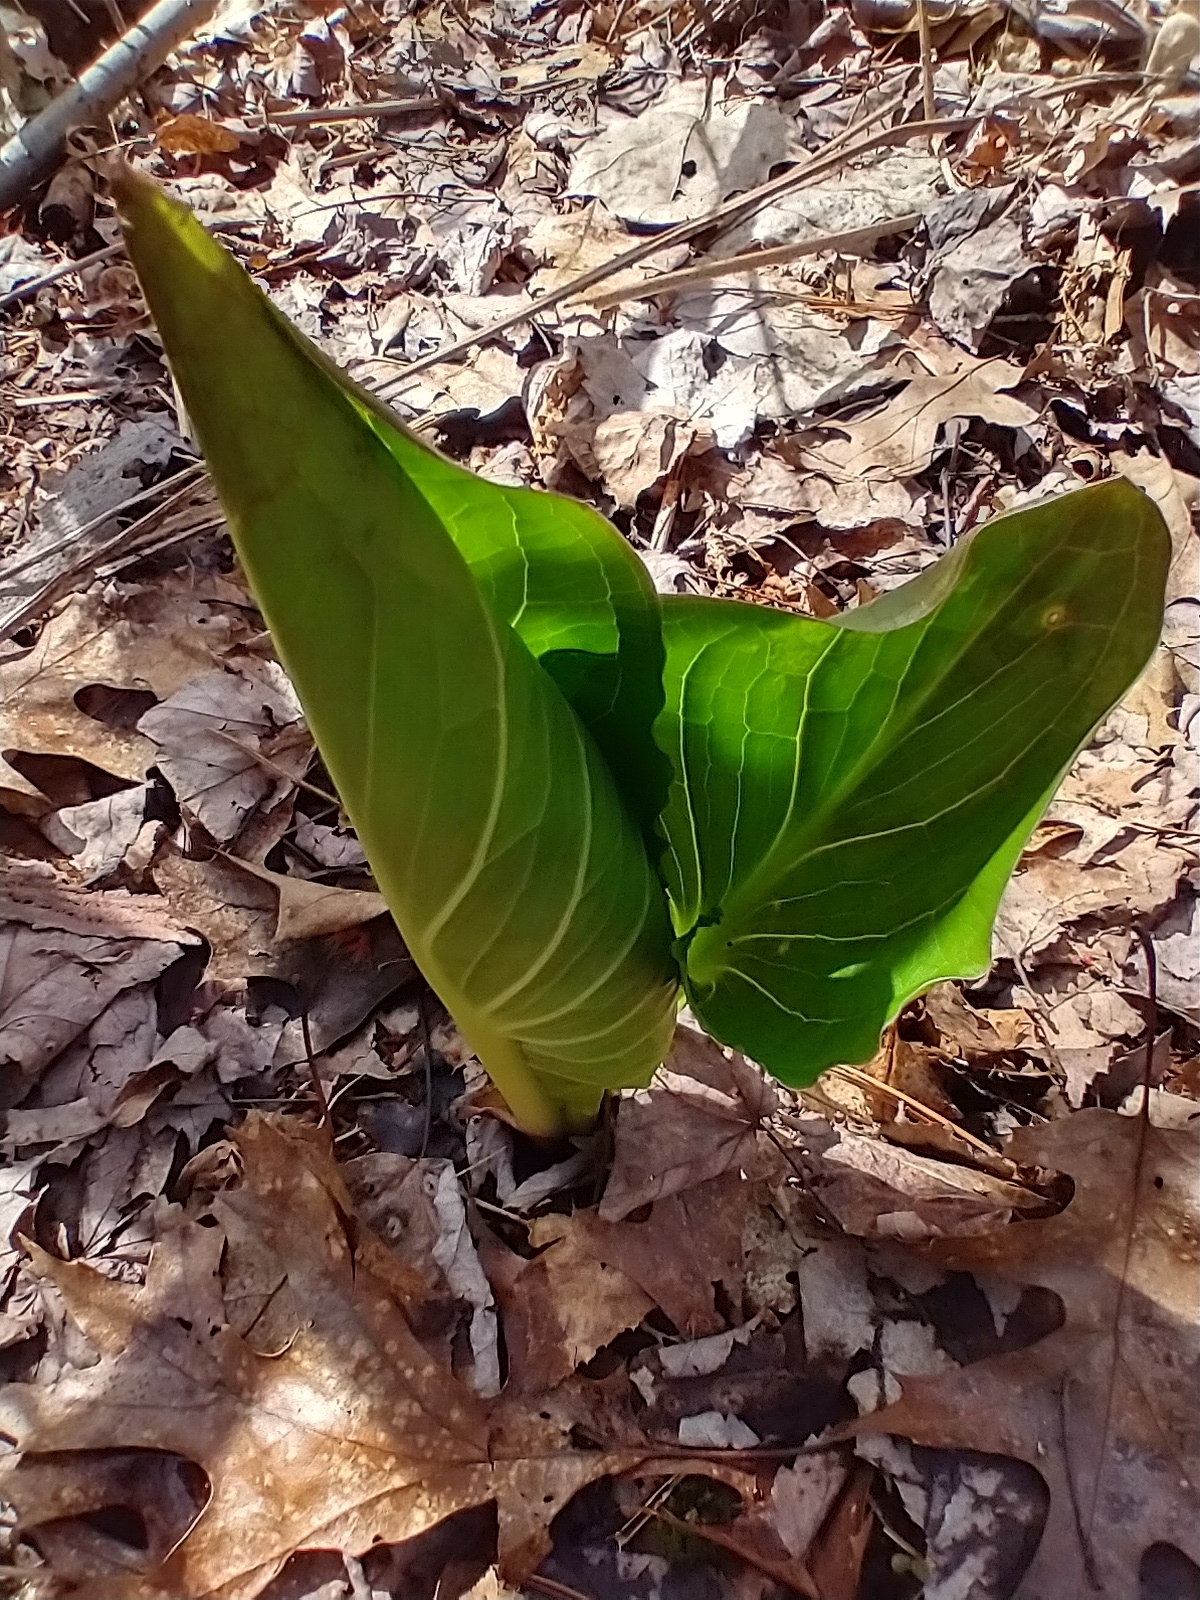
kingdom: Plantae
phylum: Tracheophyta
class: Liliopsida
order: Alismatales
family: Araceae
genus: Symplocarpus
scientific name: Symplocarpus foetidus
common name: Eastern skunk cabbage
